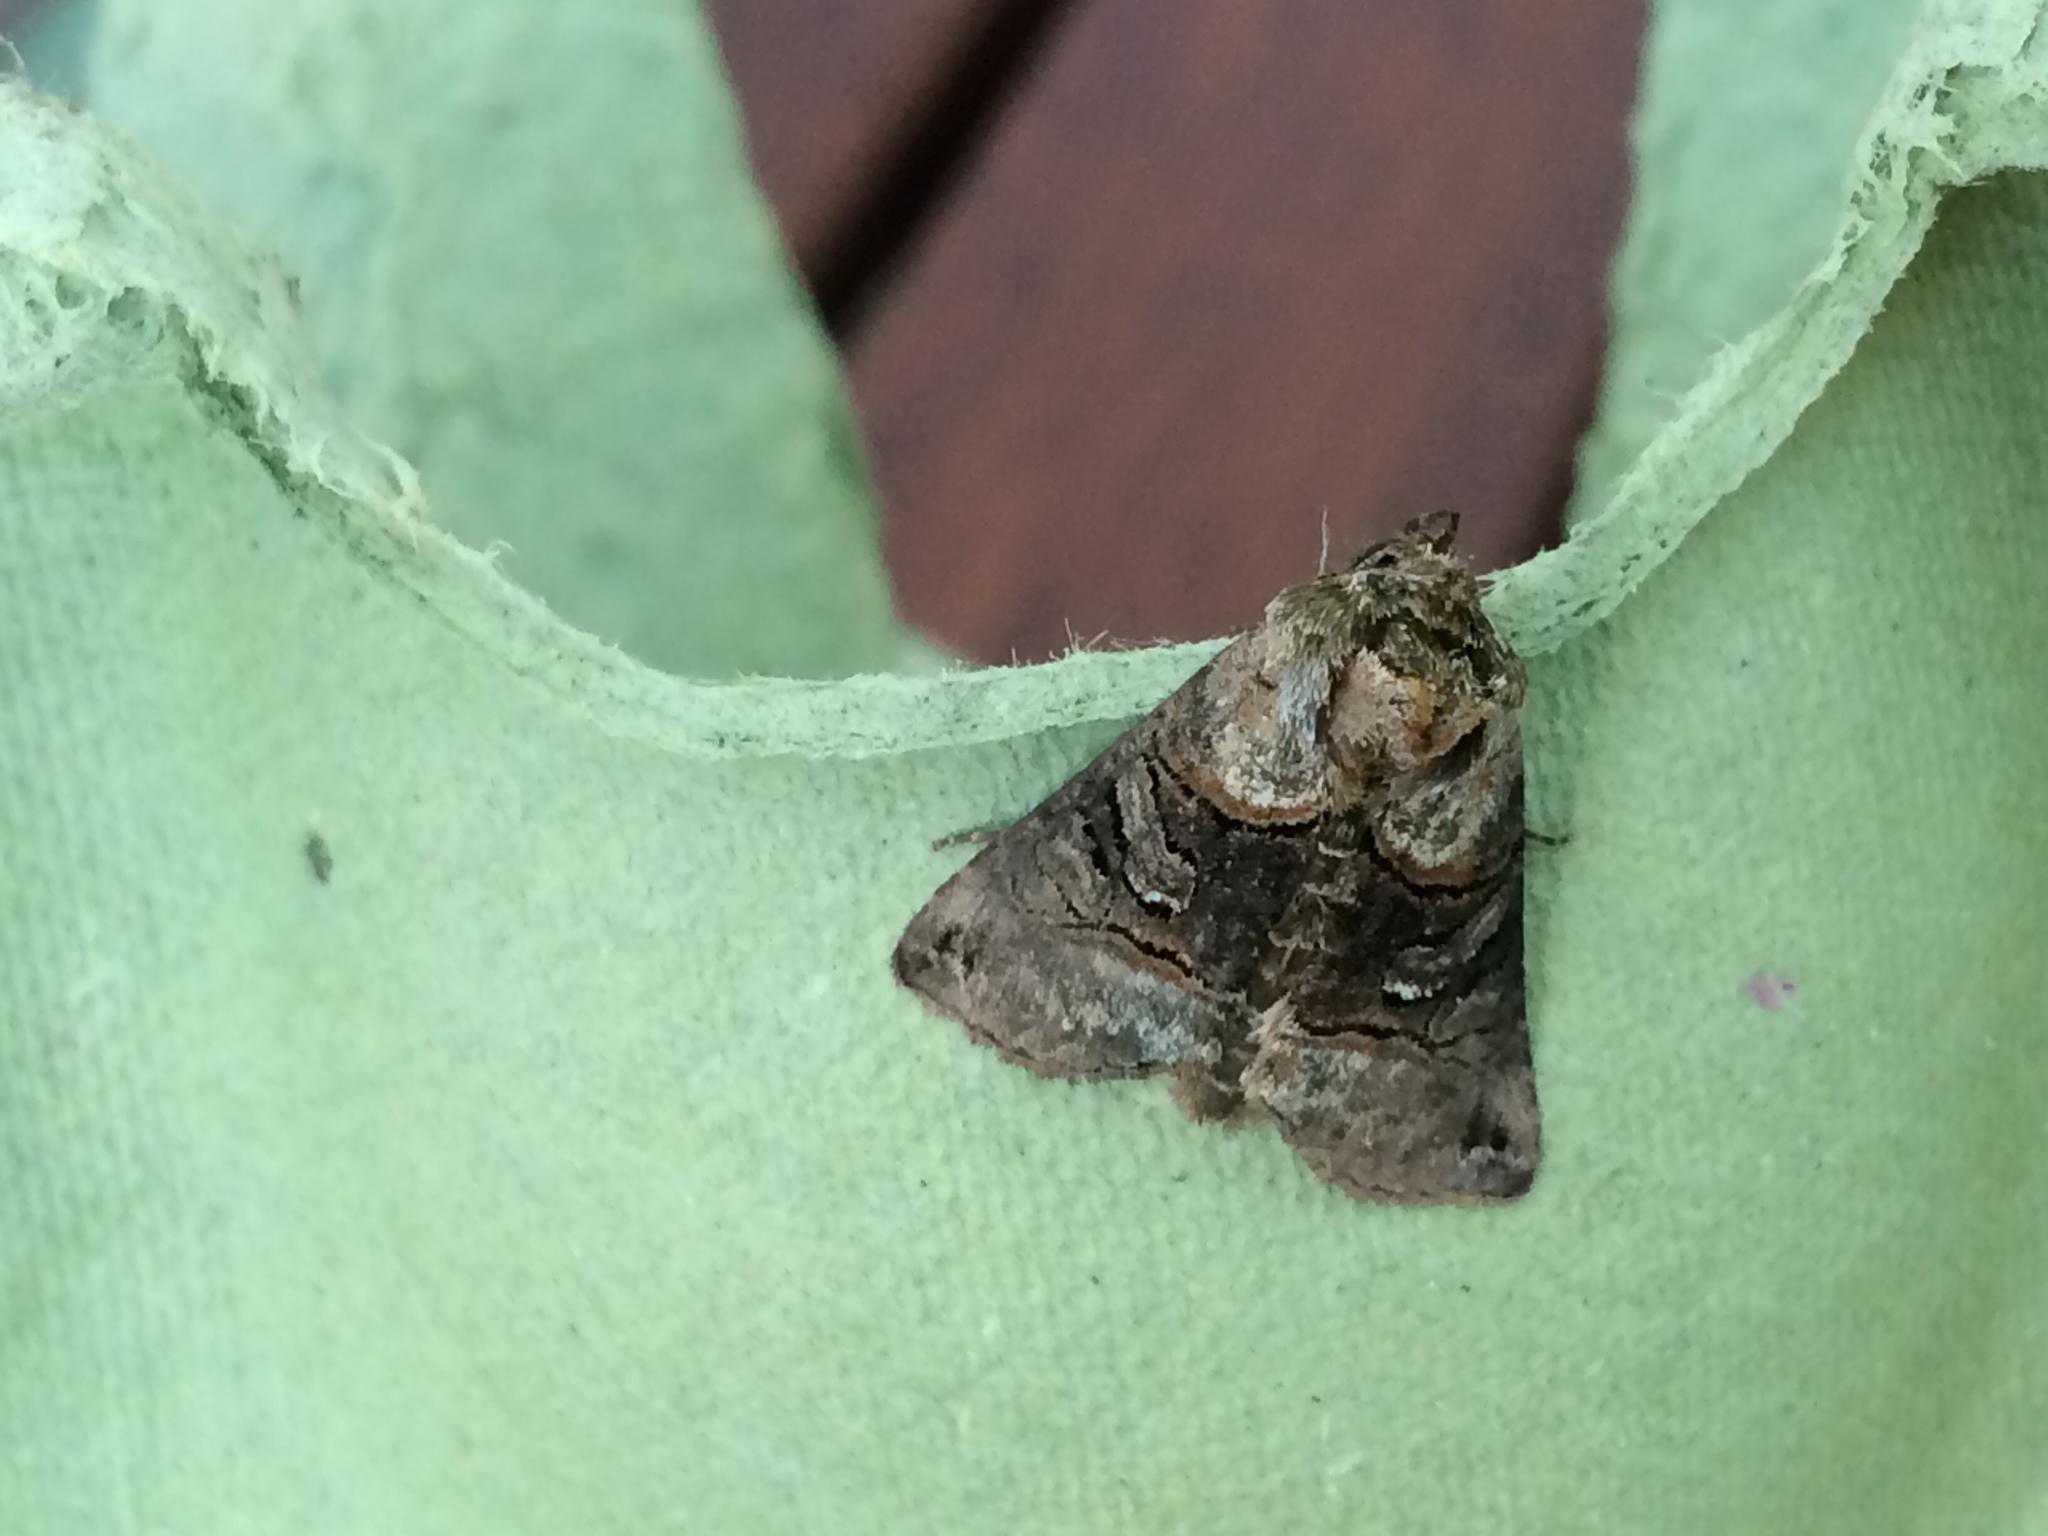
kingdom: Animalia
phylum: Arthropoda
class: Insecta
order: Lepidoptera
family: Noctuidae
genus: Abrostola
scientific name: Abrostola tripartita
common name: Spectacle
